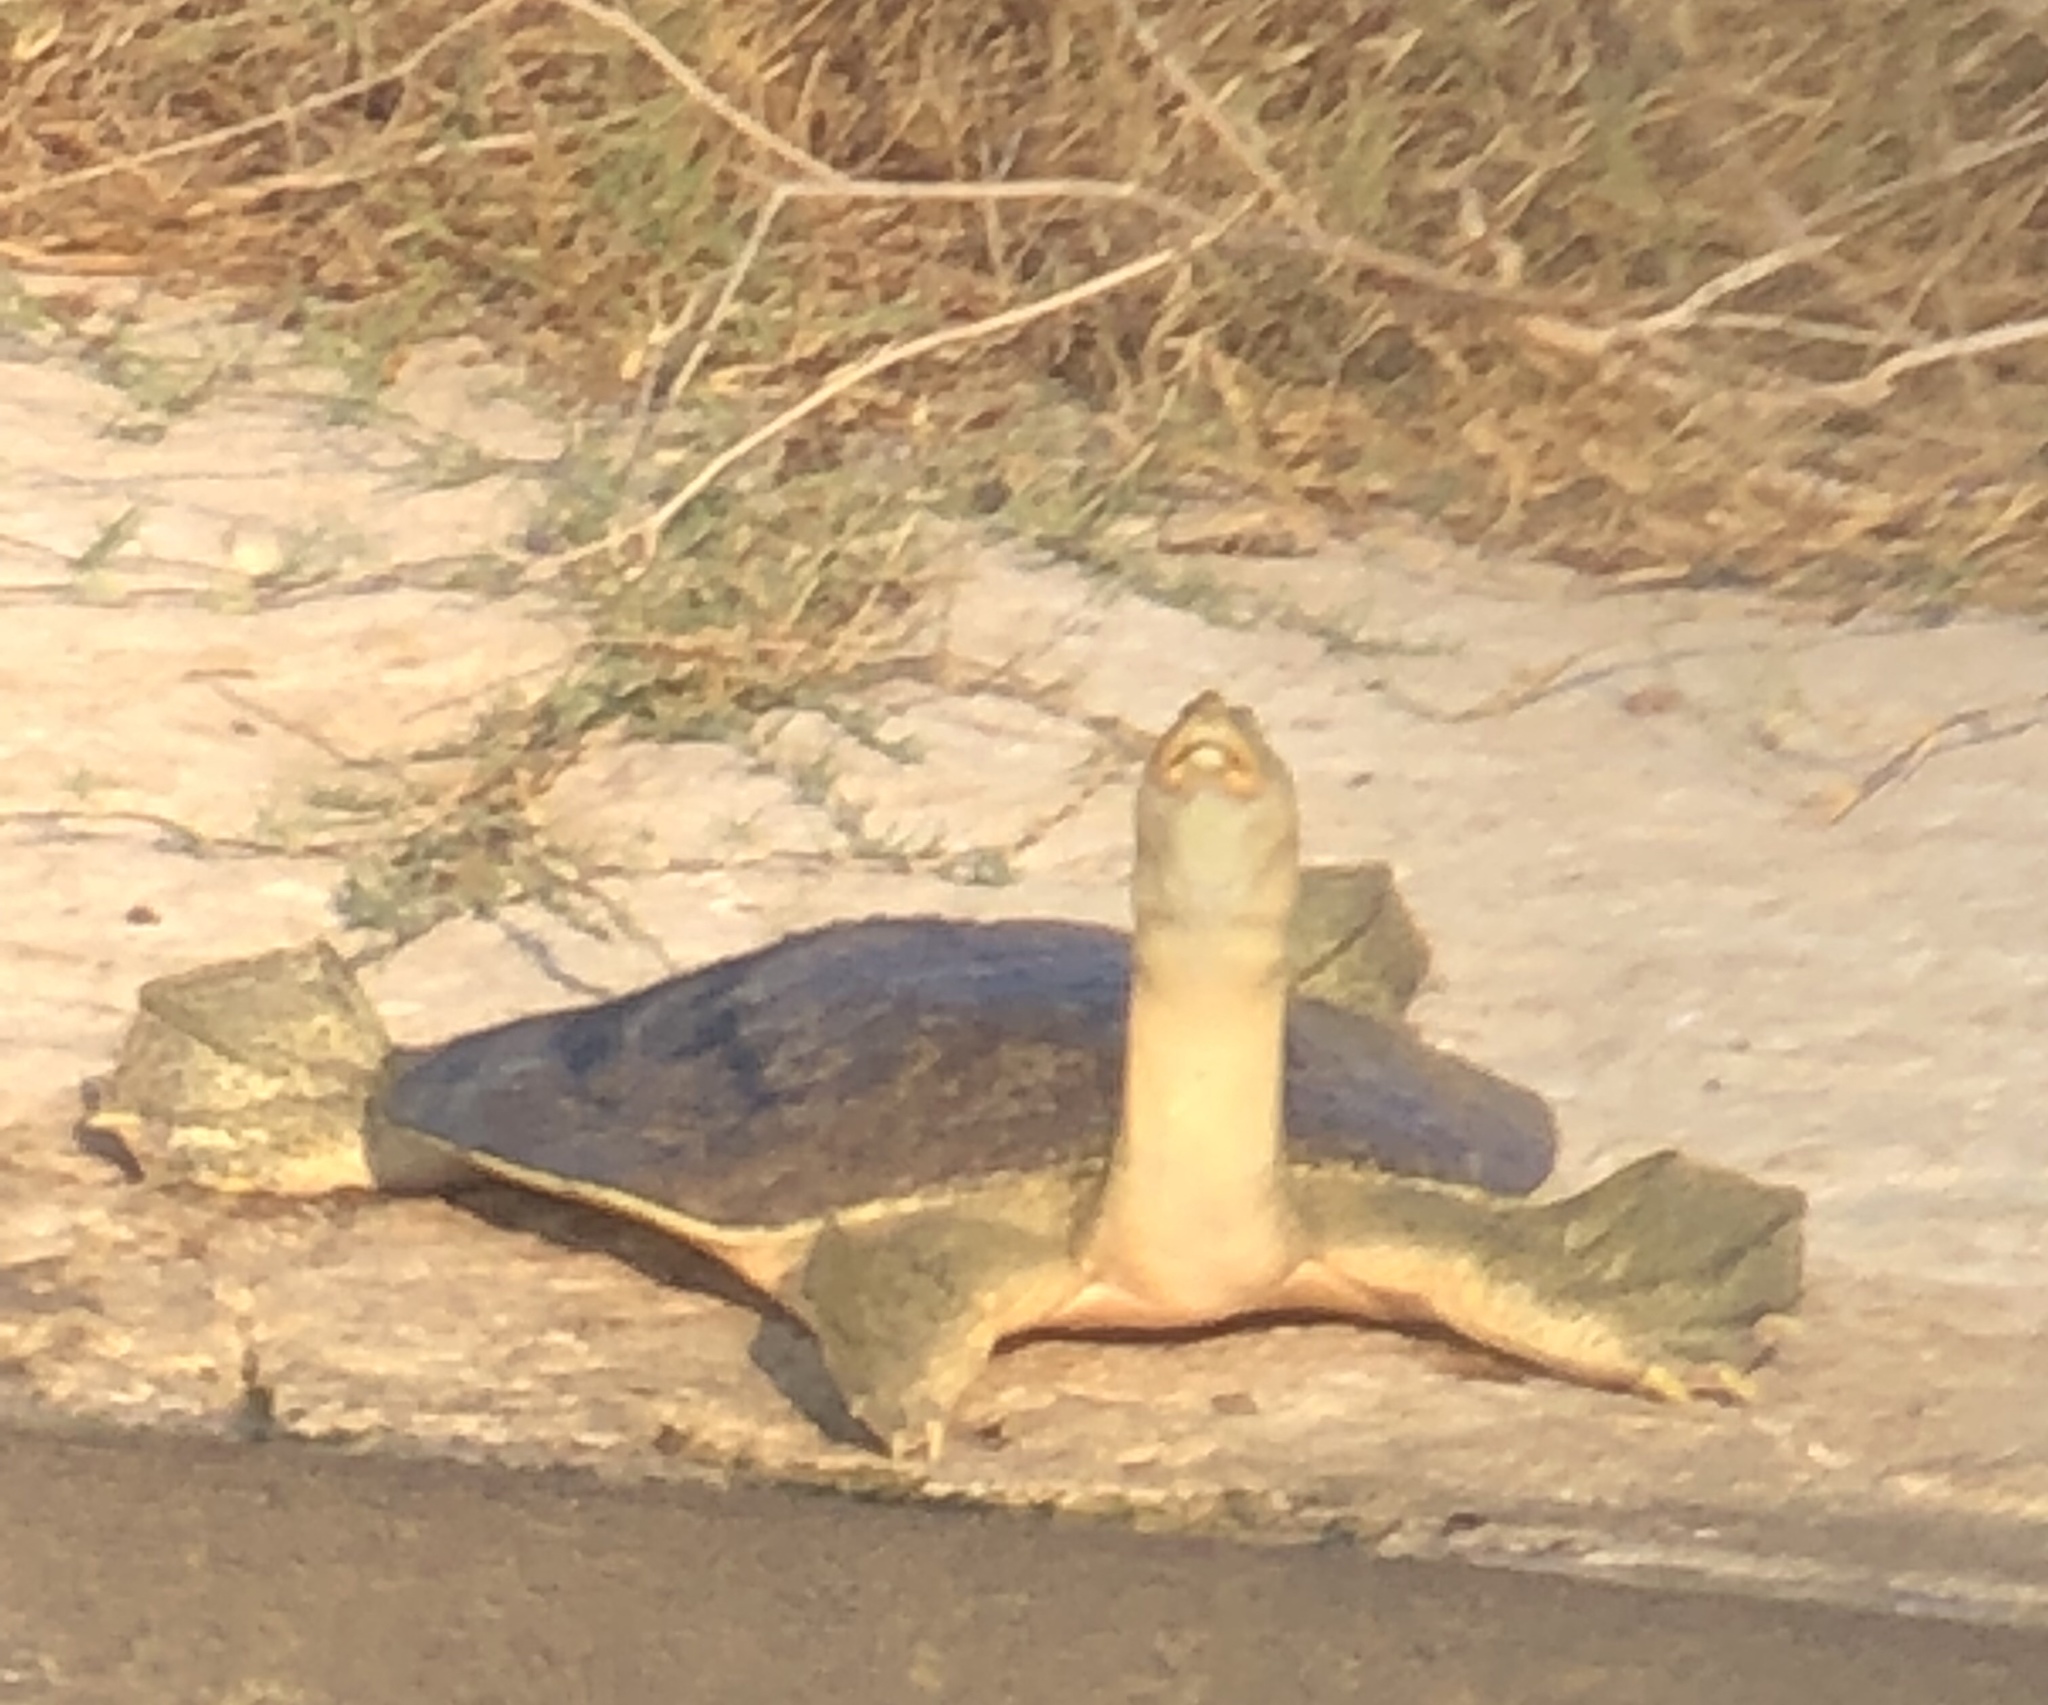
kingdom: Animalia
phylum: Chordata
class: Testudines
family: Trionychidae
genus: Apalone
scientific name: Apalone spinifera
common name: Spiny softshell turtle
